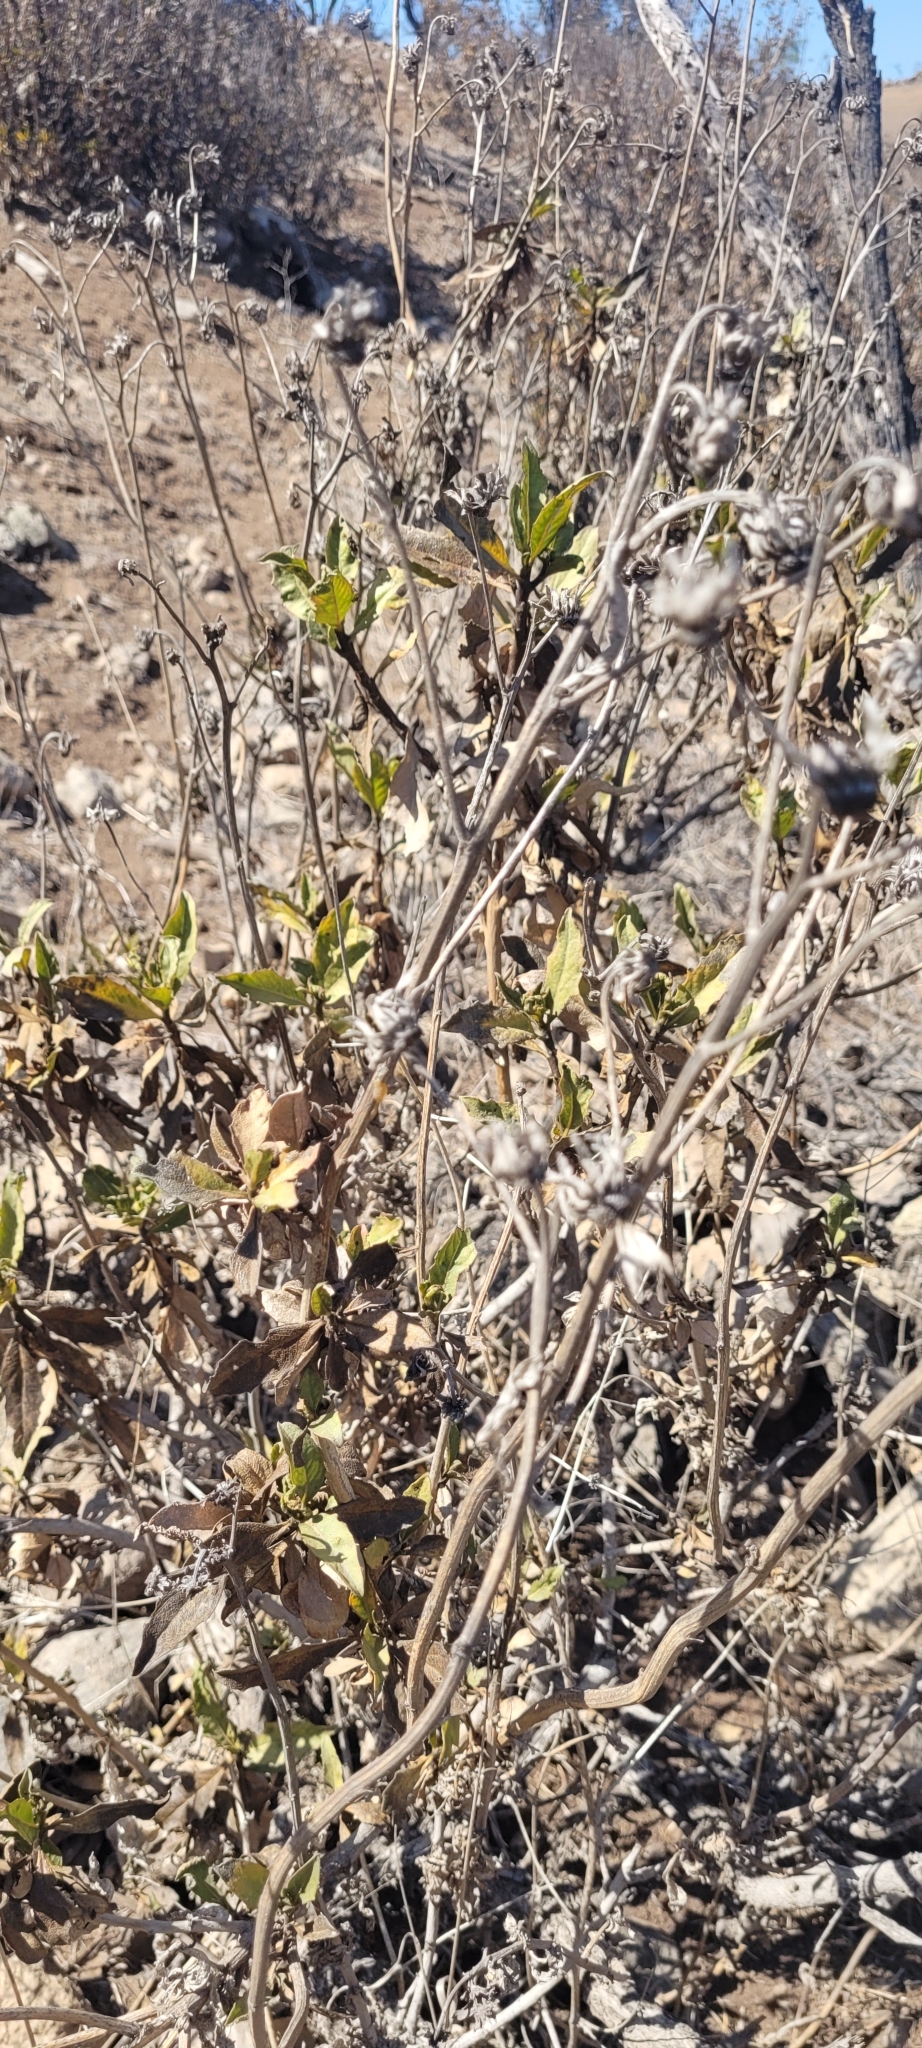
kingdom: Plantae
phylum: Tracheophyta
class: Magnoliopsida
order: Asterales
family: Asteraceae
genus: Flourensia
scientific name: Flourensia thurifera
